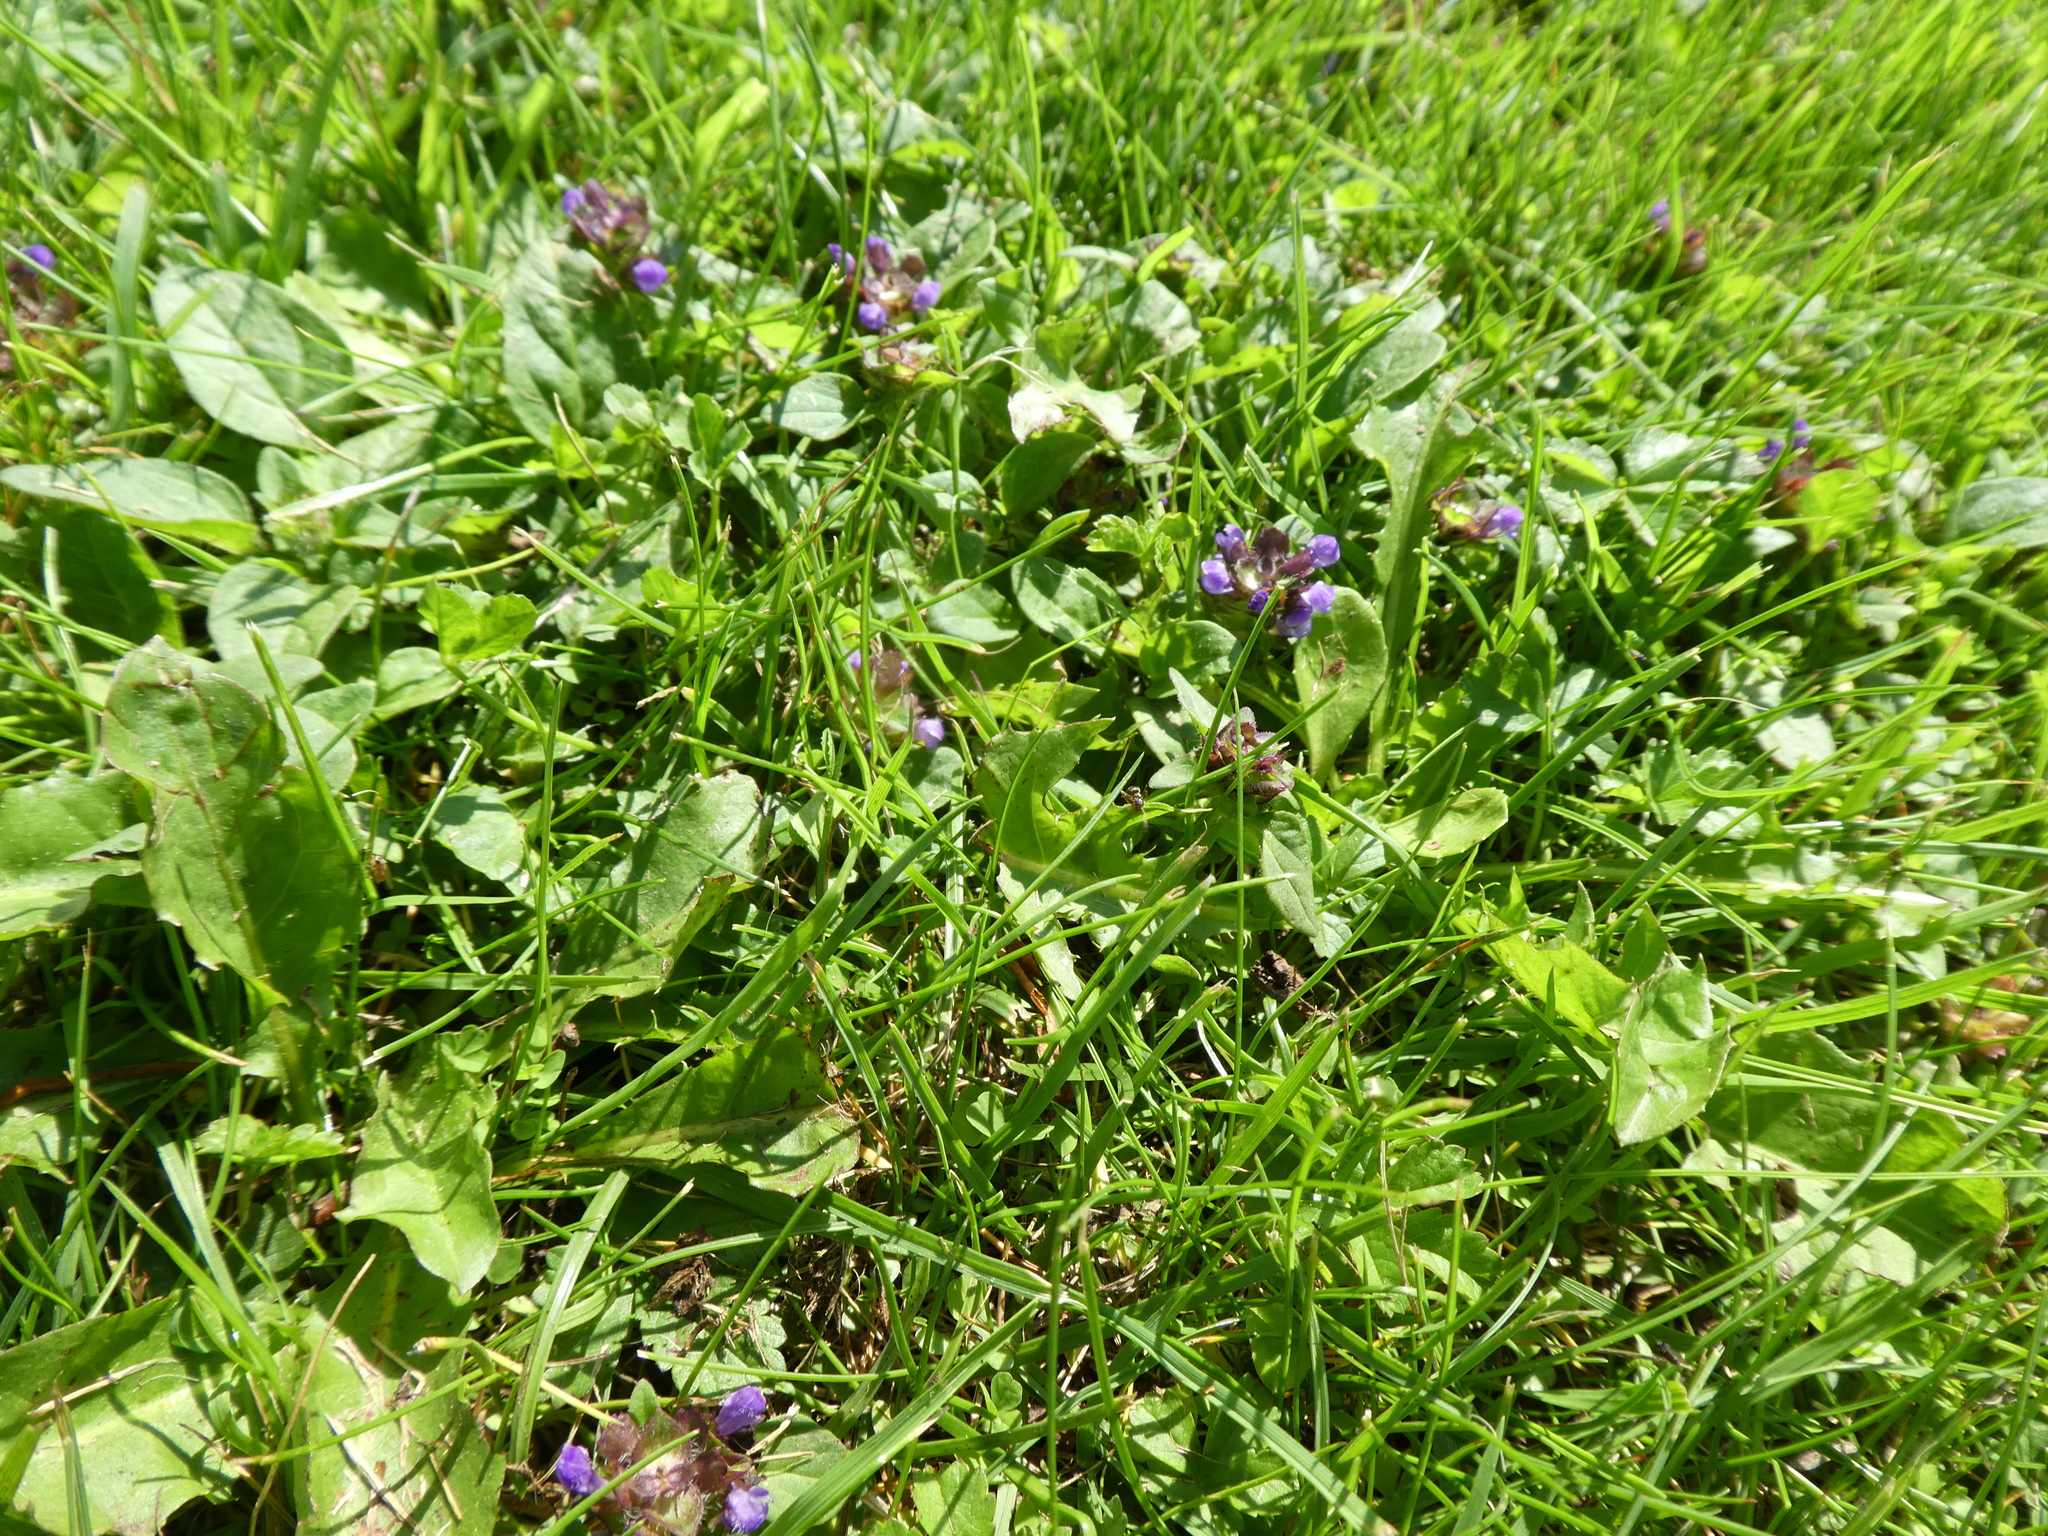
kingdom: Plantae
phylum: Tracheophyta
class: Magnoliopsida
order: Lamiales
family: Lamiaceae
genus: Prunella
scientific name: Prunella vulgaris
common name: Heal-all
